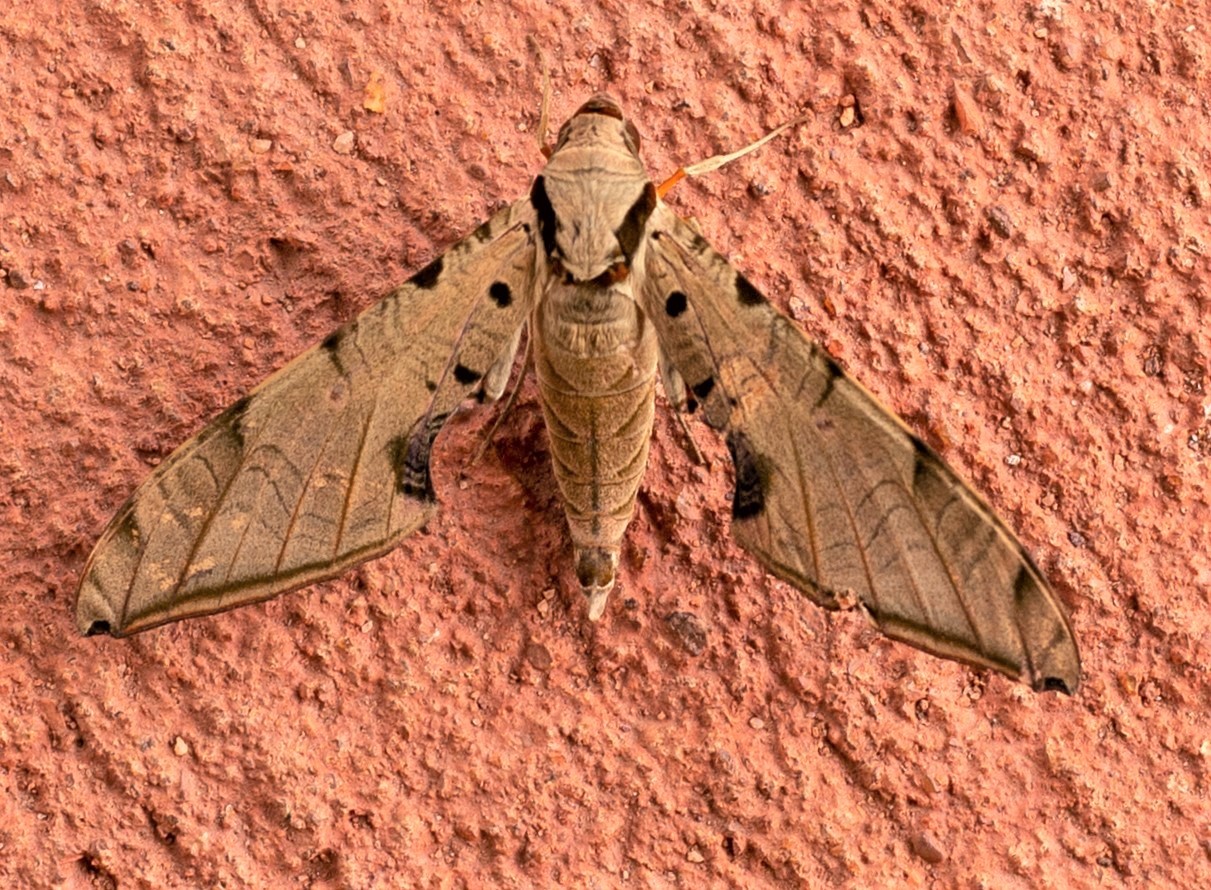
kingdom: Animalia
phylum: Arthropoda
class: Insecta
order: Lepidoptera
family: Sphingidae
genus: Protambulyx
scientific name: Protambulyx strigilis
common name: Streaked sphinx
